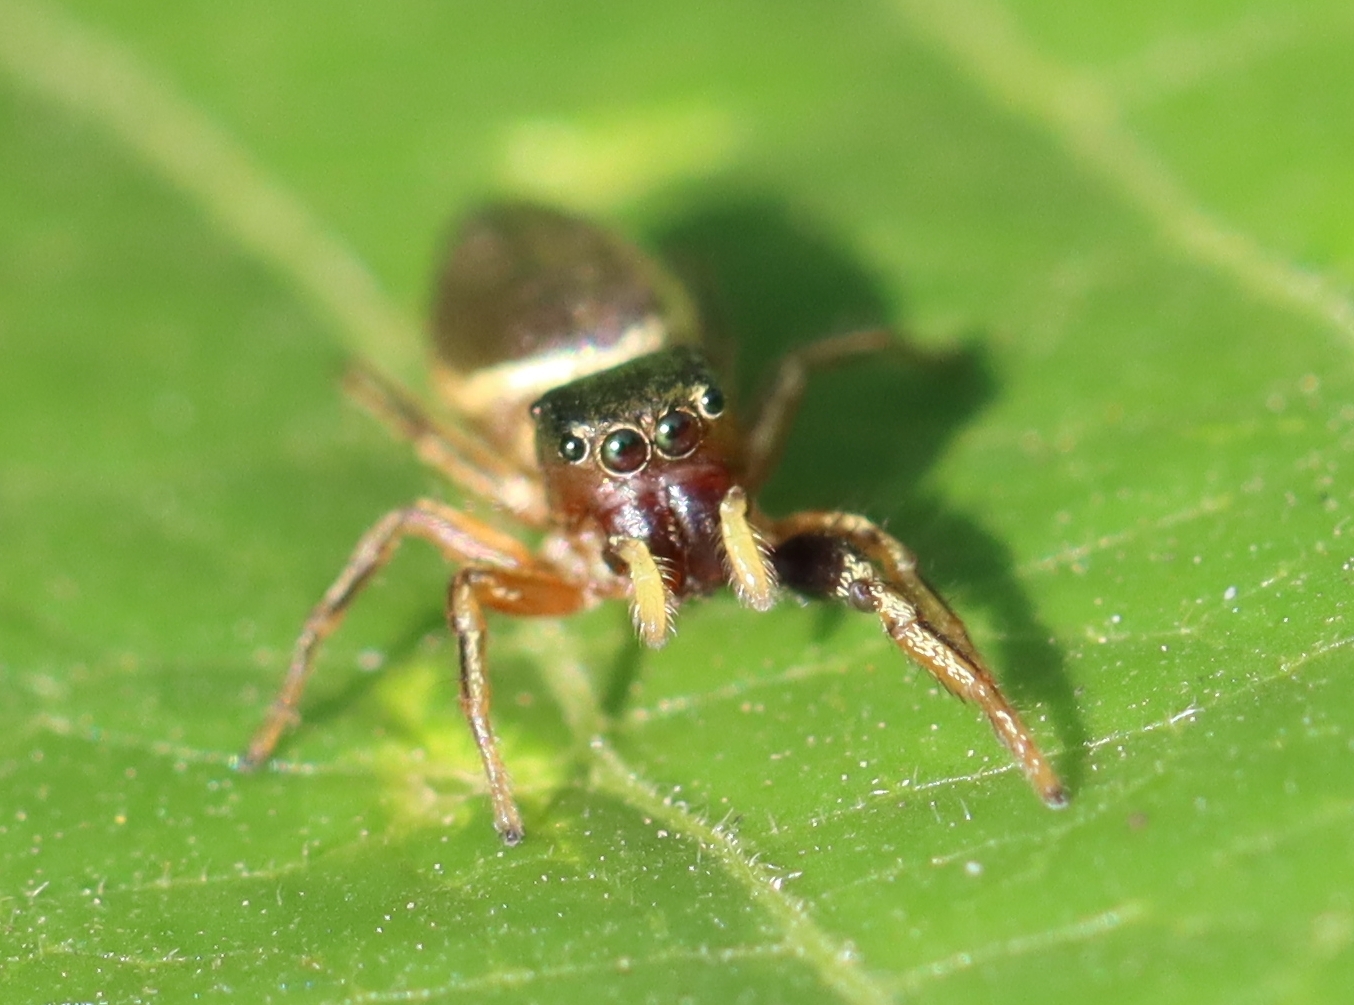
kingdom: Animalia
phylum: Arthropoda
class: Arachnida
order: Araneae
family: Salticidae
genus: Tutelina
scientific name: Tutelina elegans
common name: Thin-spined jumping spider
